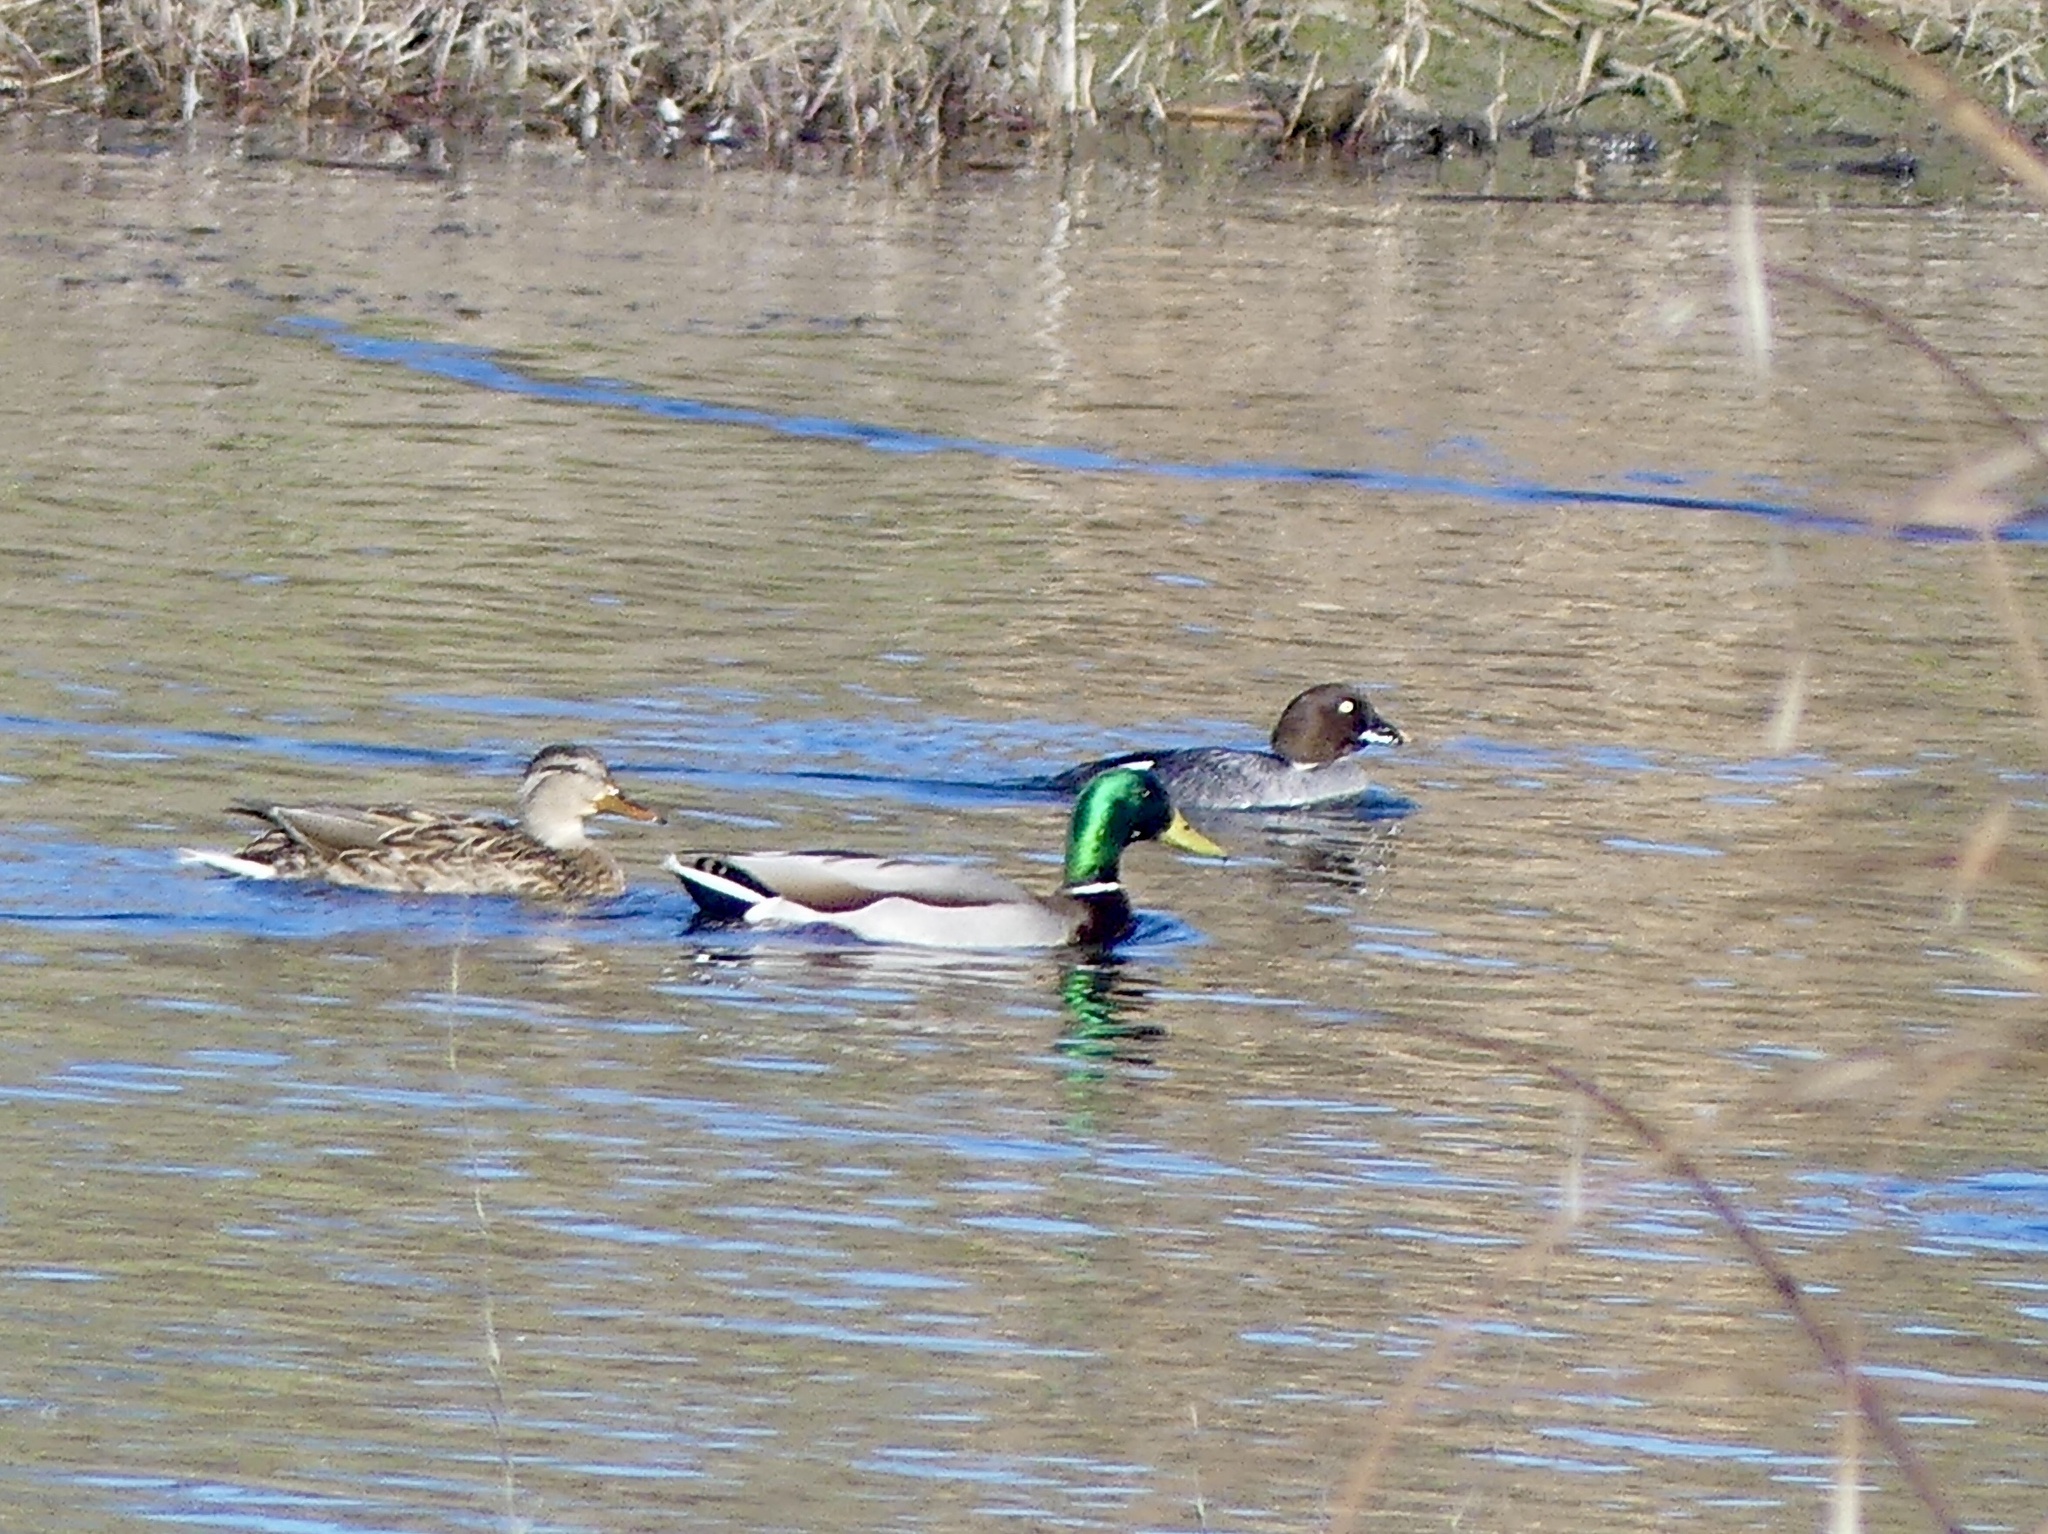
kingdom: Animalia
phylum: Chordata
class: Aves
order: Anseriformes
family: Anatidae
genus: Bucephala
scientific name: Bucephala clangula
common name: Common goldeneye
